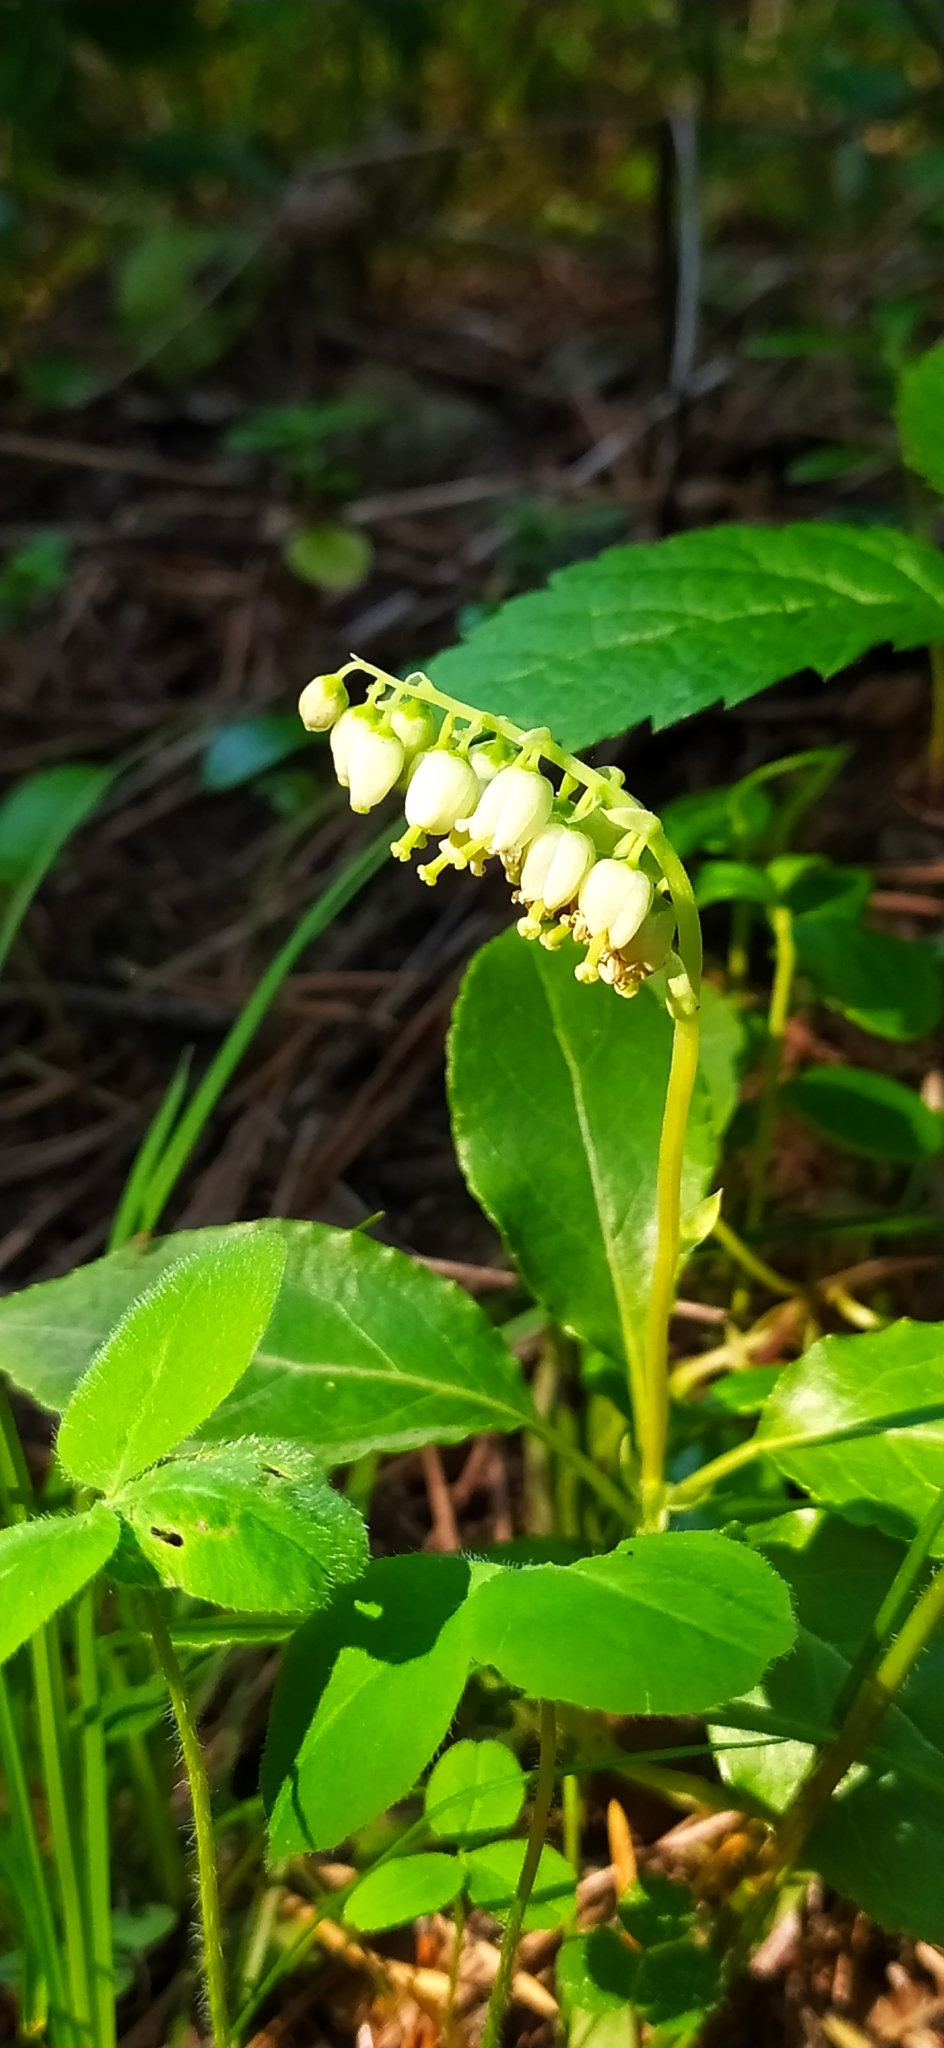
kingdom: Plantae
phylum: Tracheophyta
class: Magnoliopsida
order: Ericales
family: Ericaceae
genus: Orthilia
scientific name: Orthilia secunda
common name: One-sided orthilia
